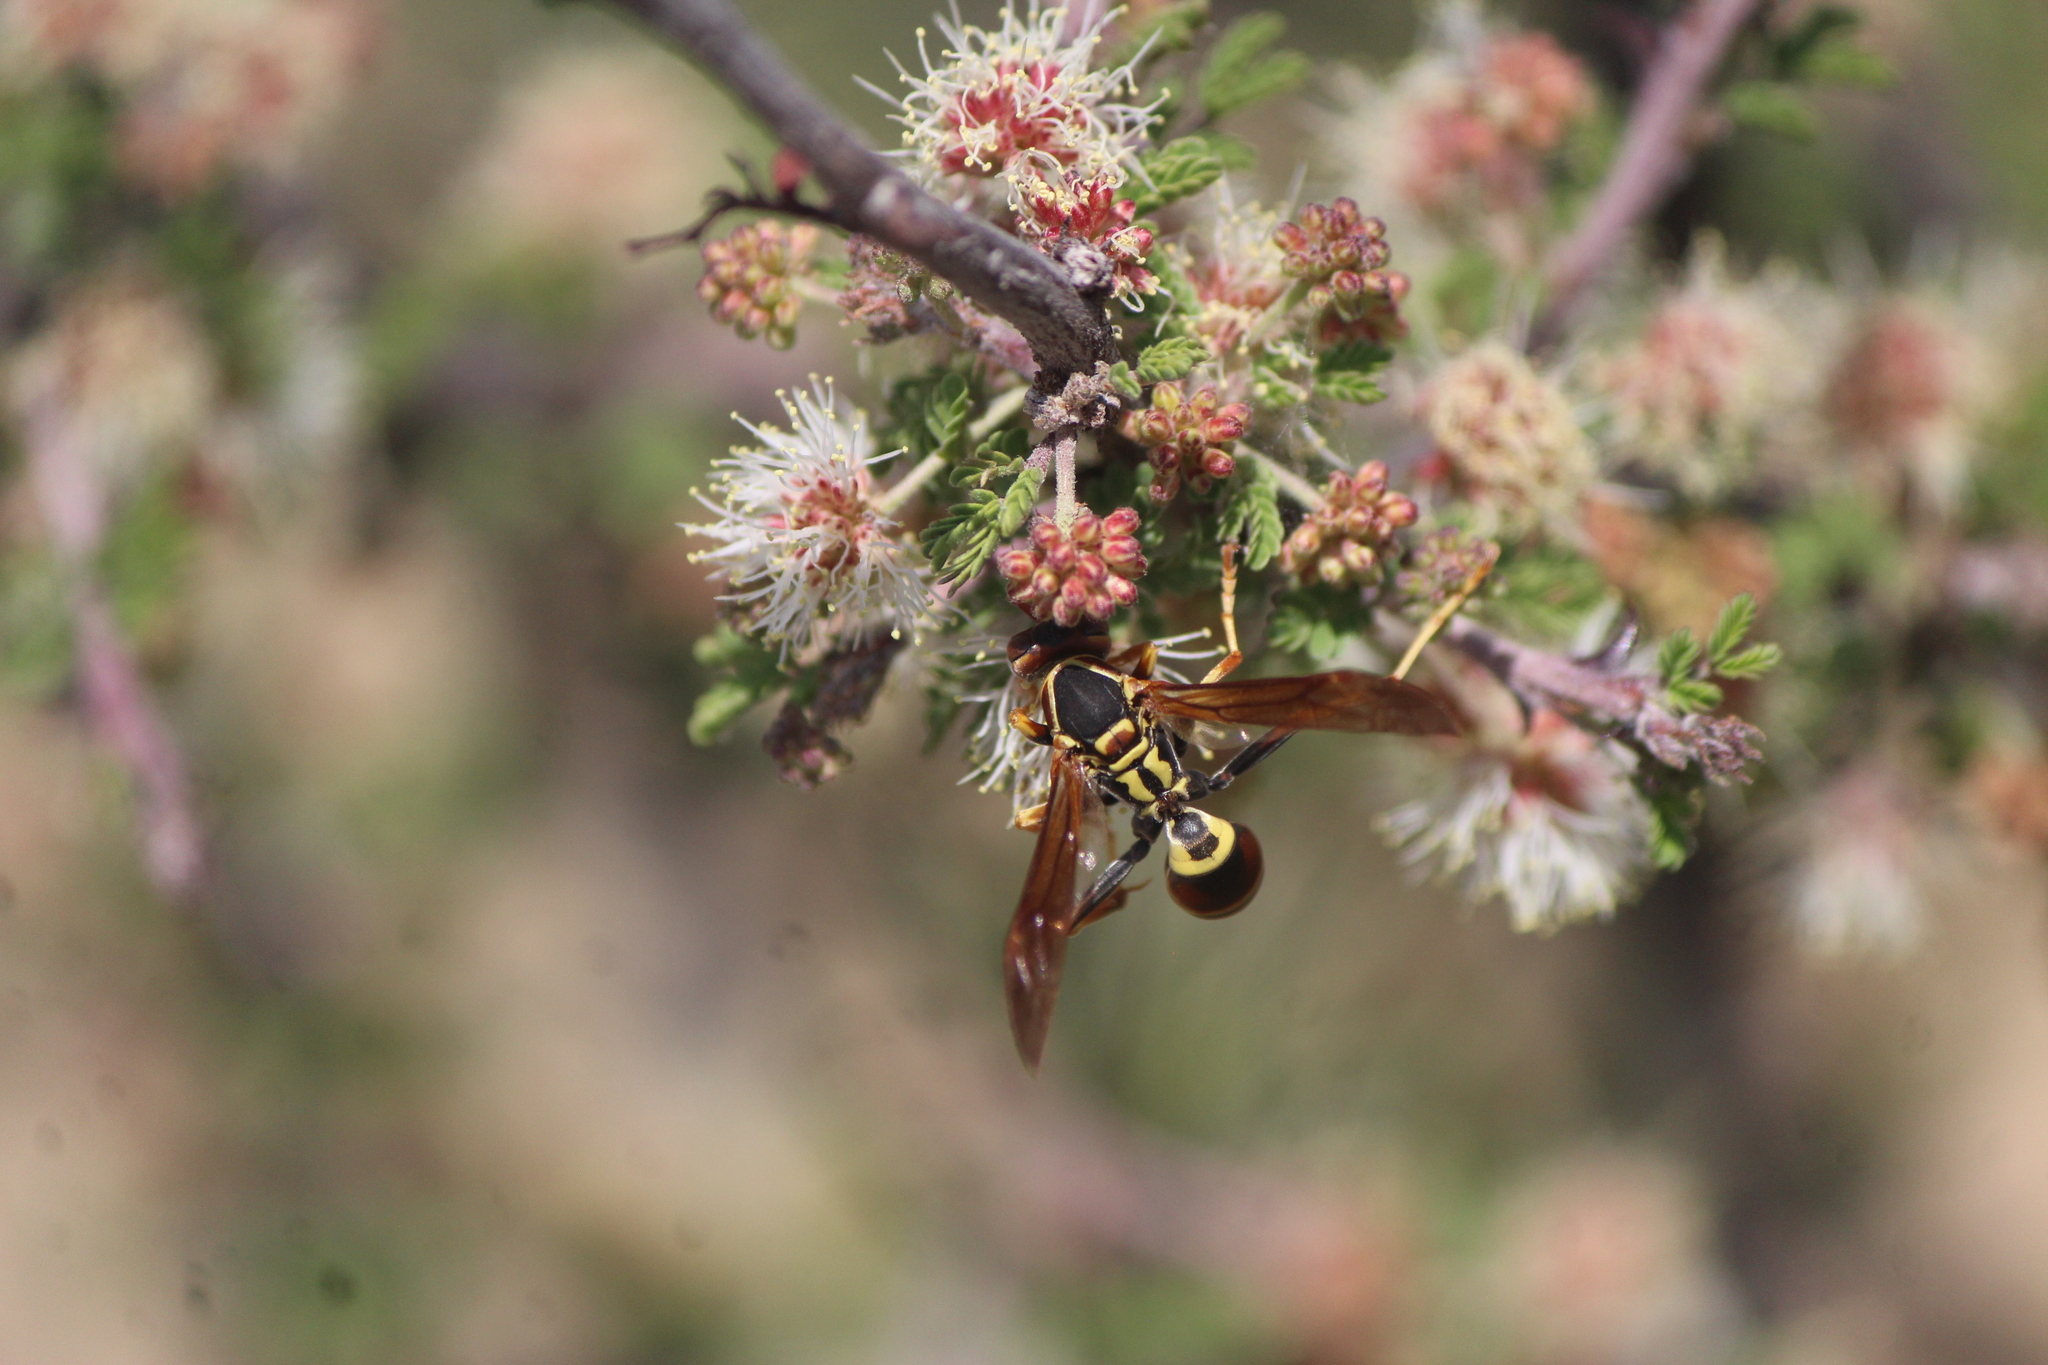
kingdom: Animalia
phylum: Arthropoda
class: Insecta
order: Hymenoptera
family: Eumenidae
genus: Polistes
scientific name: Polistes dorsalis
